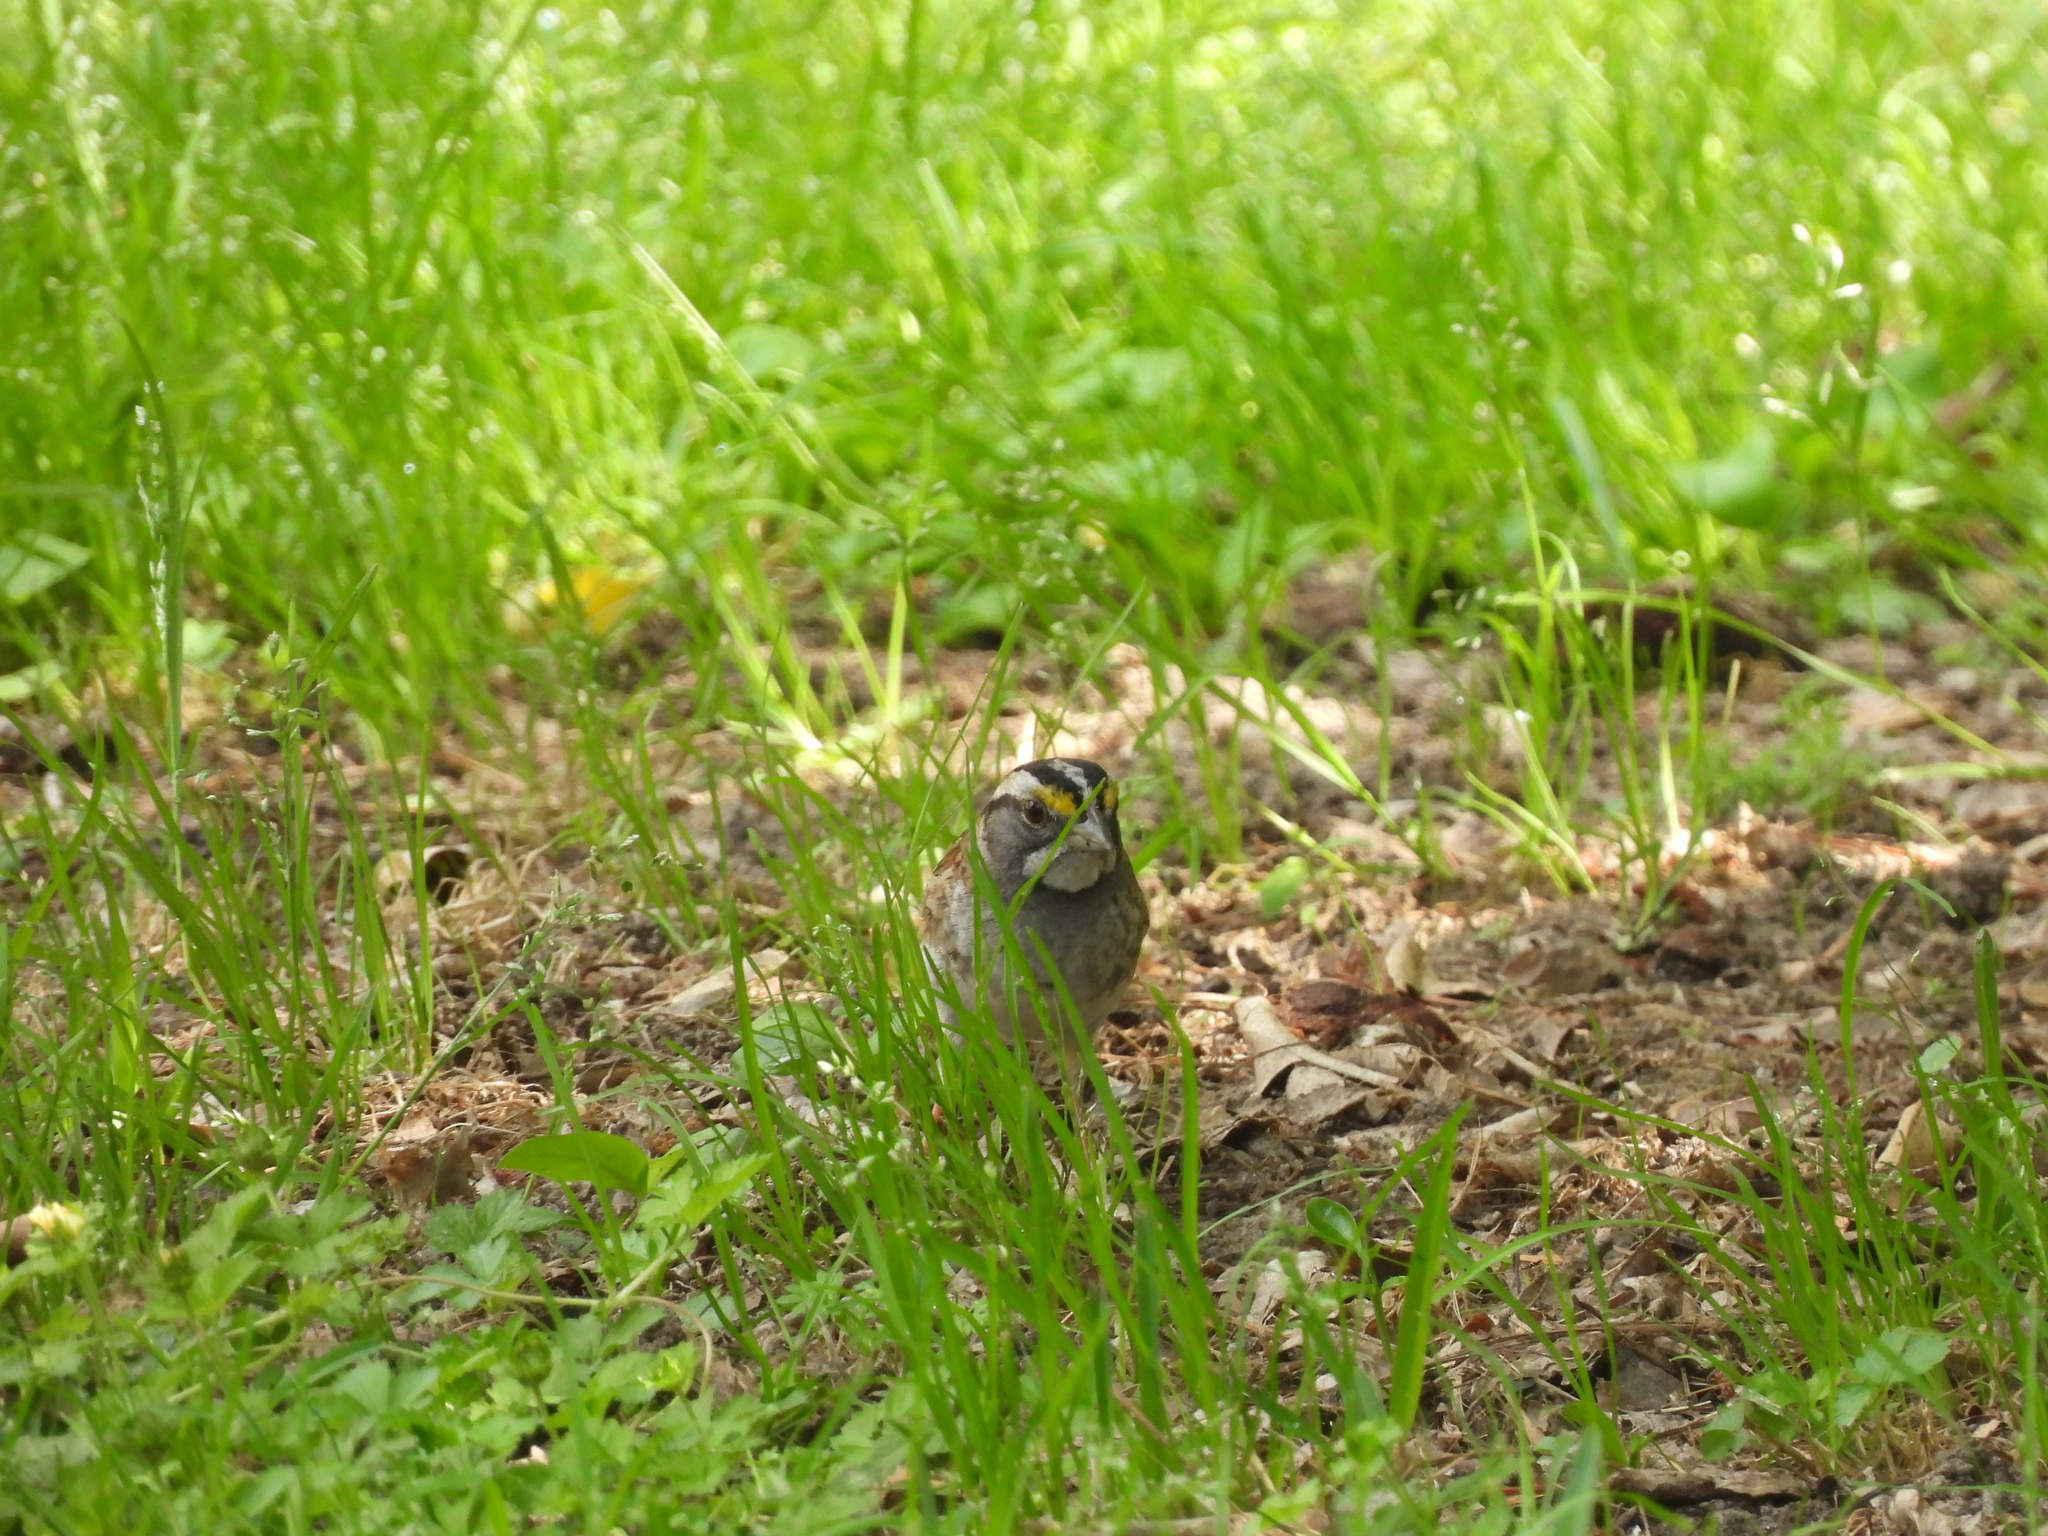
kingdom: Animalia
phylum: Chordata
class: Aves
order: Passeriformes
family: Passerellidae
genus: Zonotrichia
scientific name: Zonotrichia albicollis
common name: White-throated sparrow
